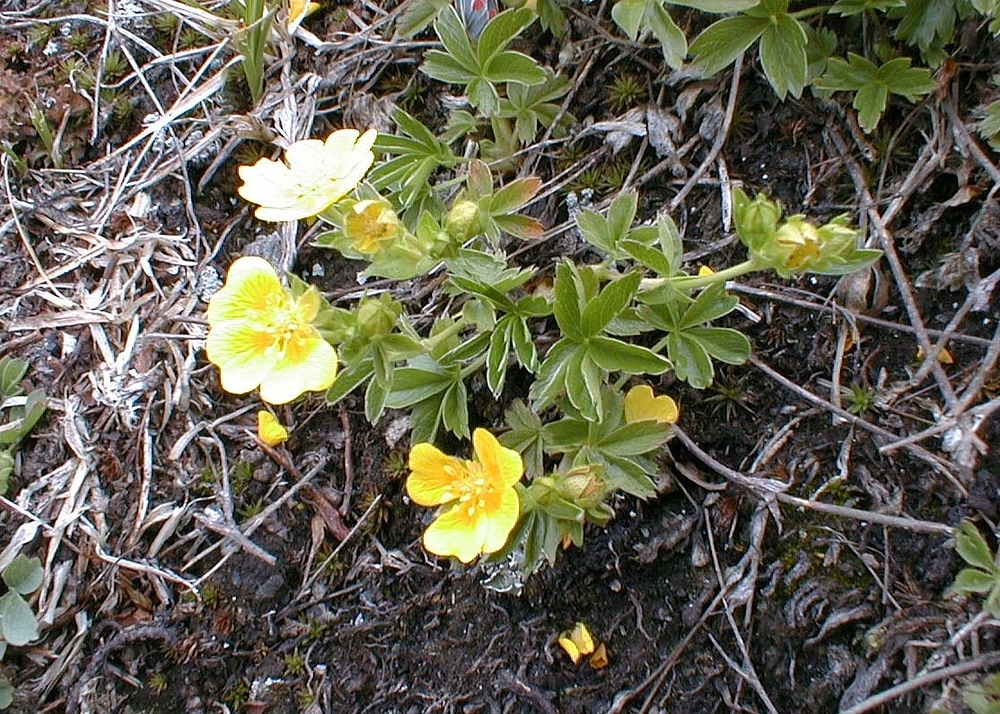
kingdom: Plantae
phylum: Tracheophyta
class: Magnoliopsida
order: Rosales
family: Rosaceae
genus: Potentilla
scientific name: Potentilla aurea
